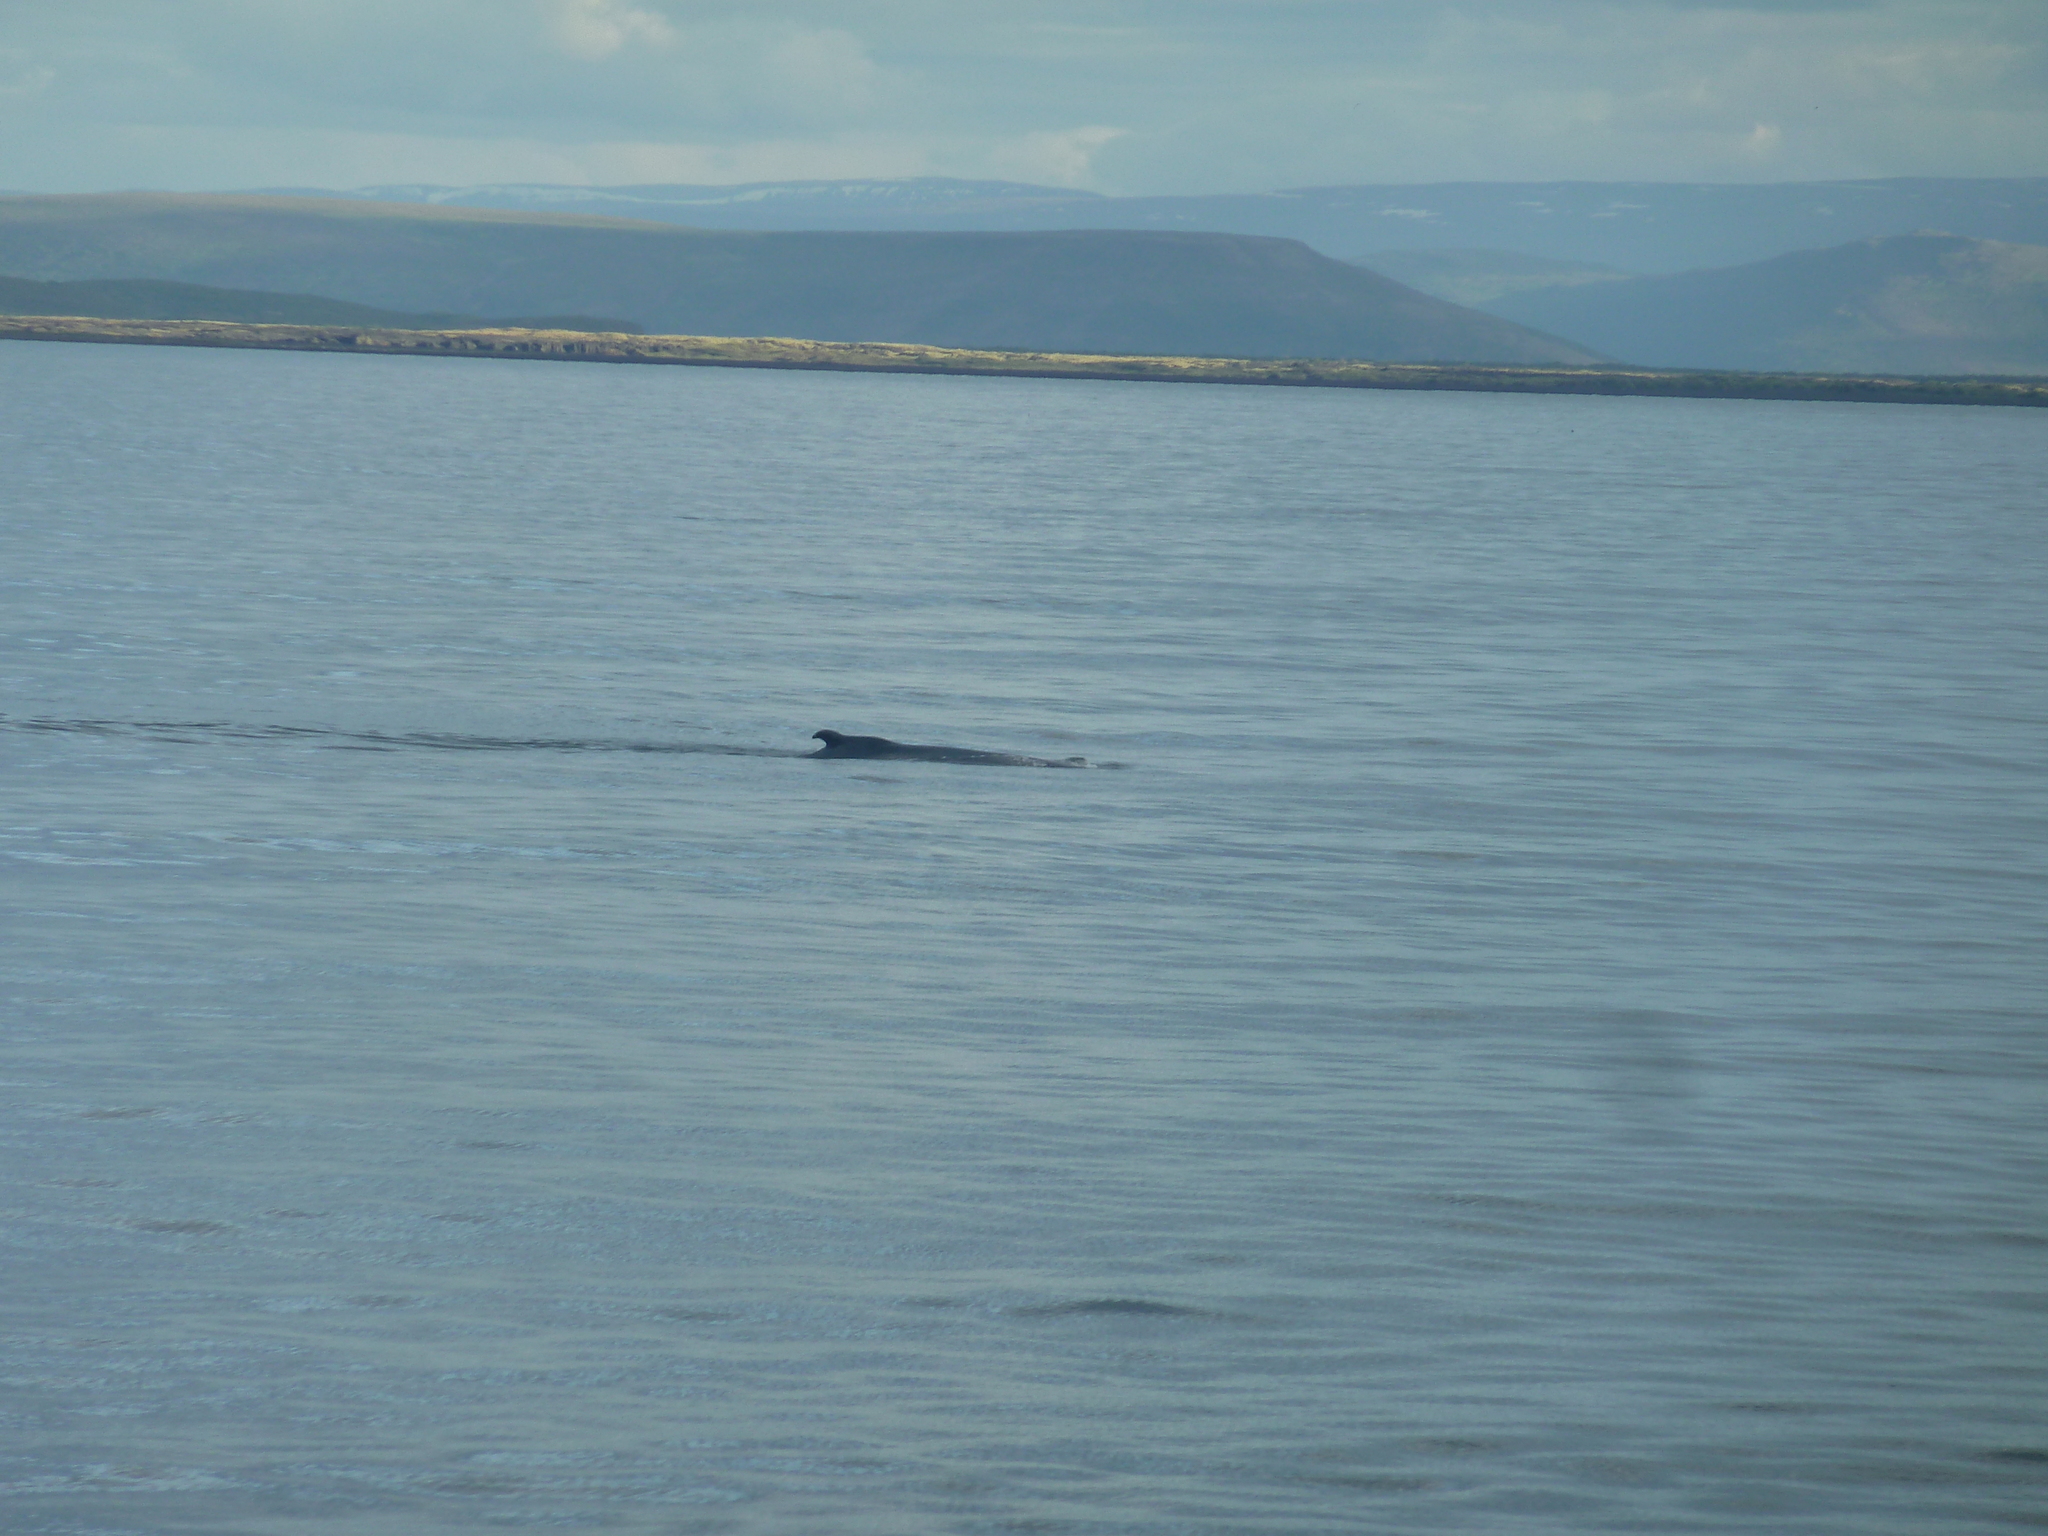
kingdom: Animalia
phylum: Chordata
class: Mammalia
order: Cetacea
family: Balaenopteridae
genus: Megaptera
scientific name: Megaptera novaeangliae
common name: Humpback whale
